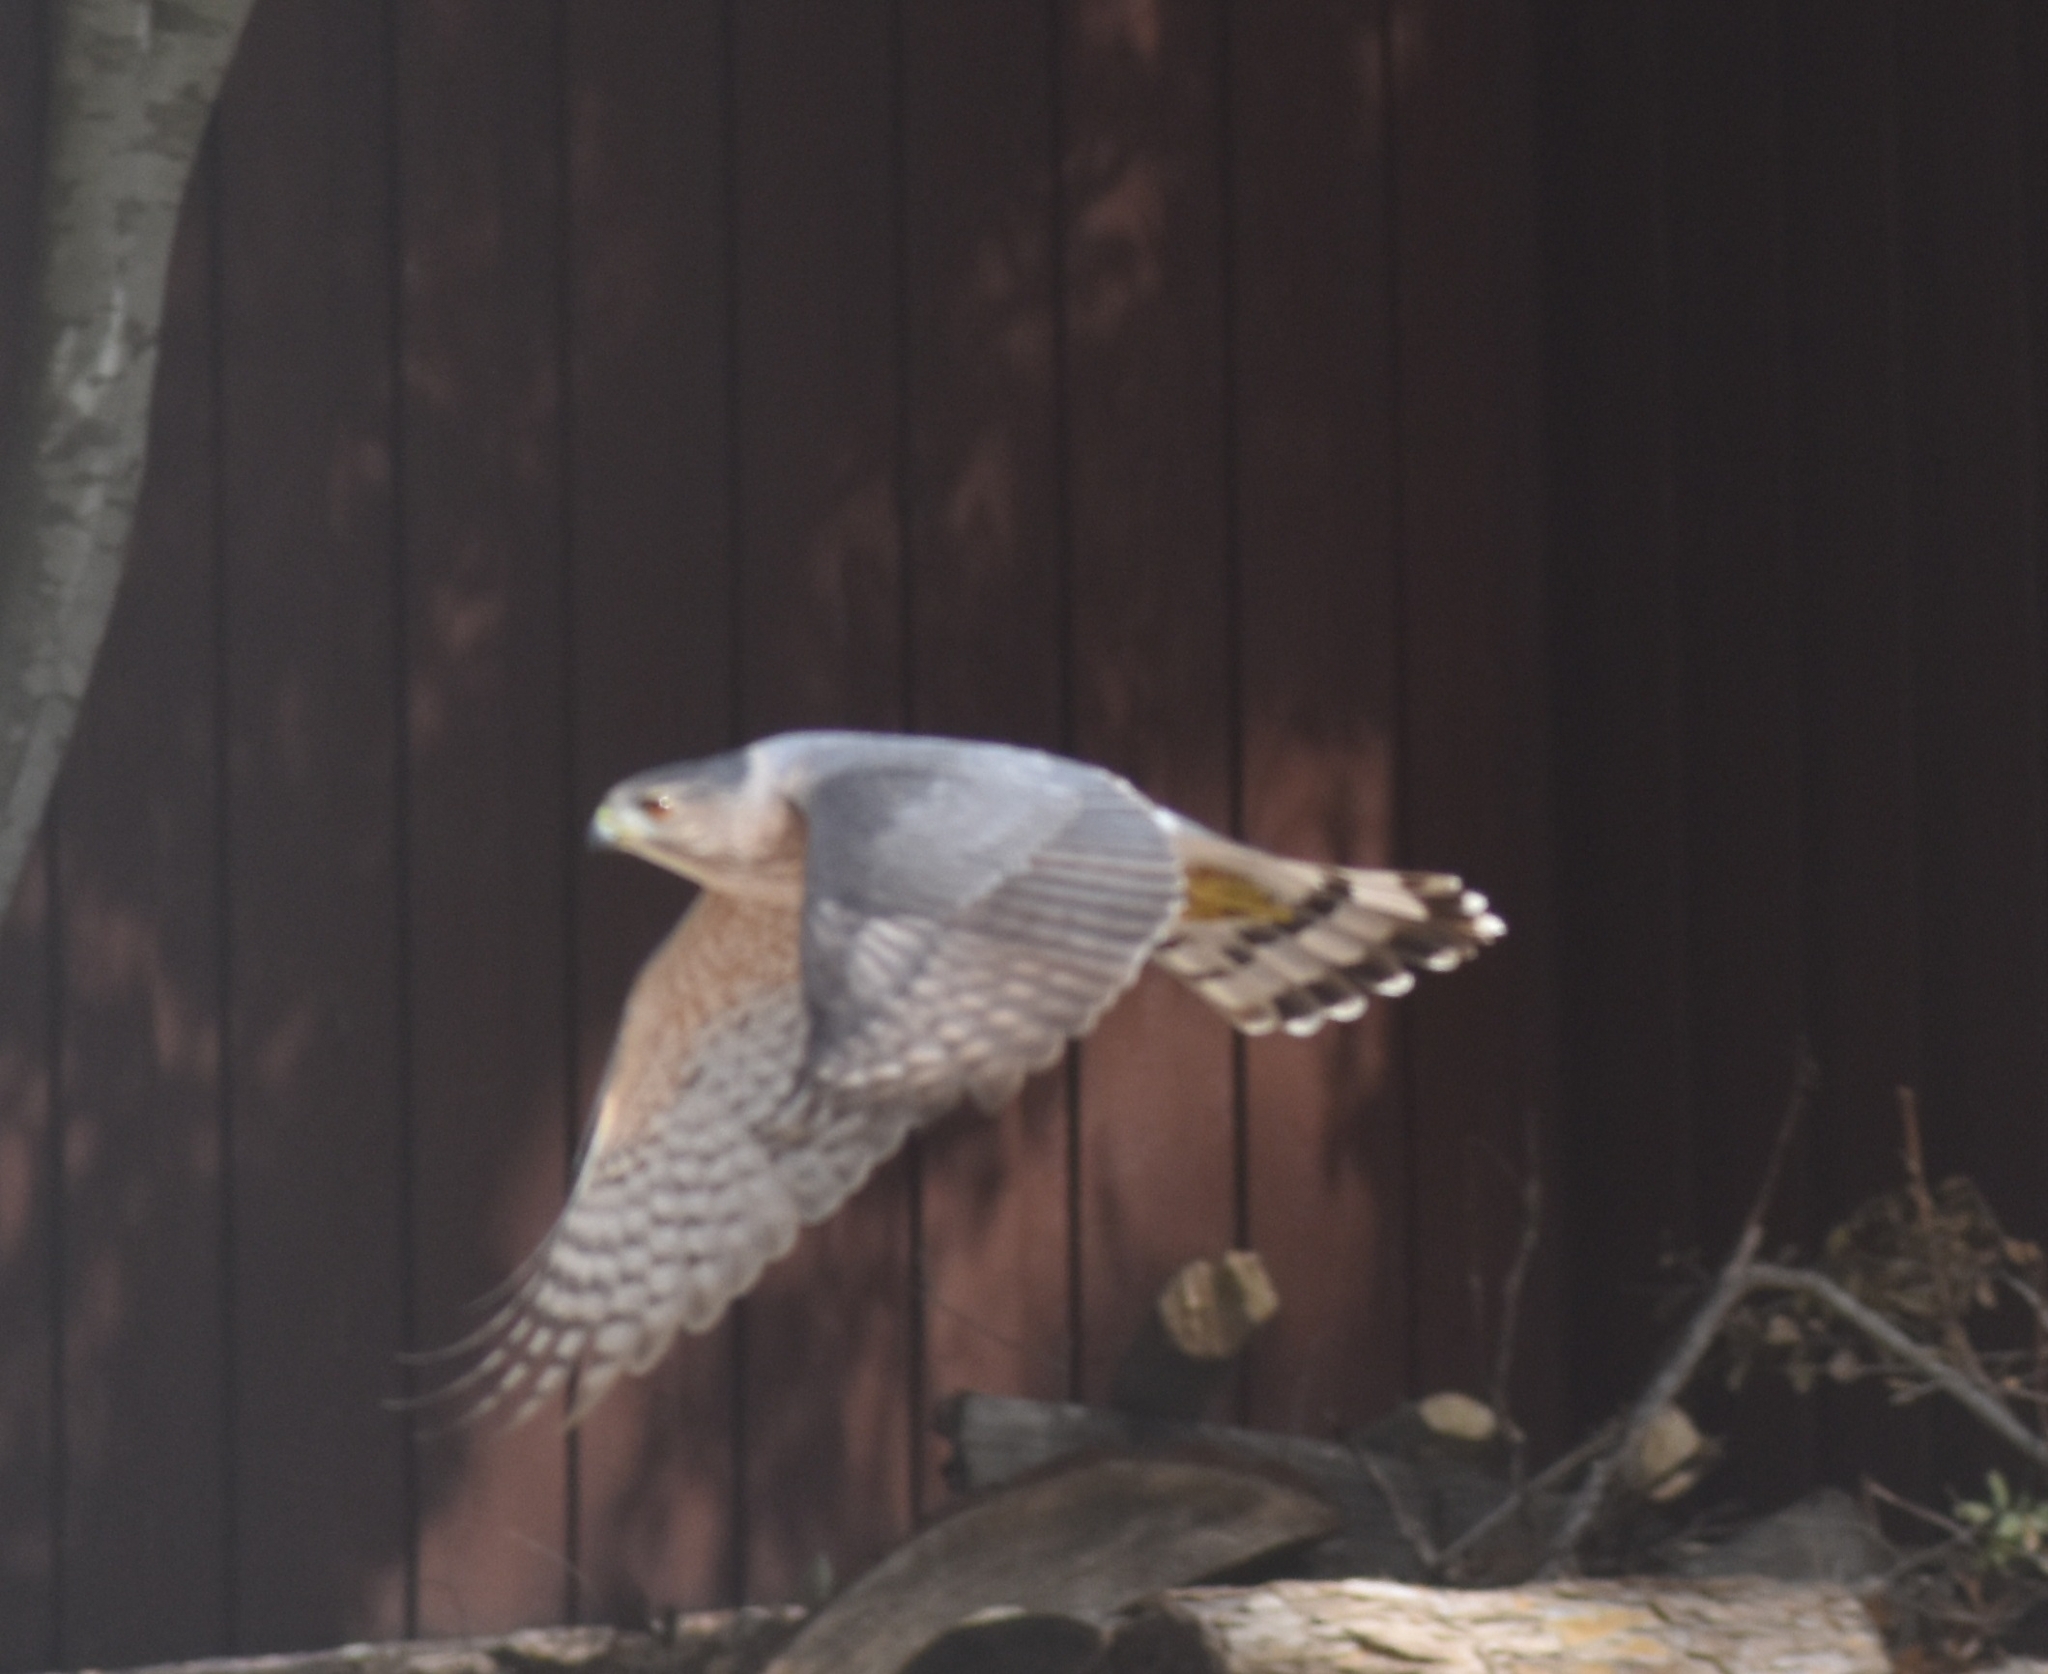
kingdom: Animalia
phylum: Chordata
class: Aves
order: Accipitriformes
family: Accipitridae
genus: Accipiter
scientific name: Accipiter cooperii
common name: Cooper's hawk
